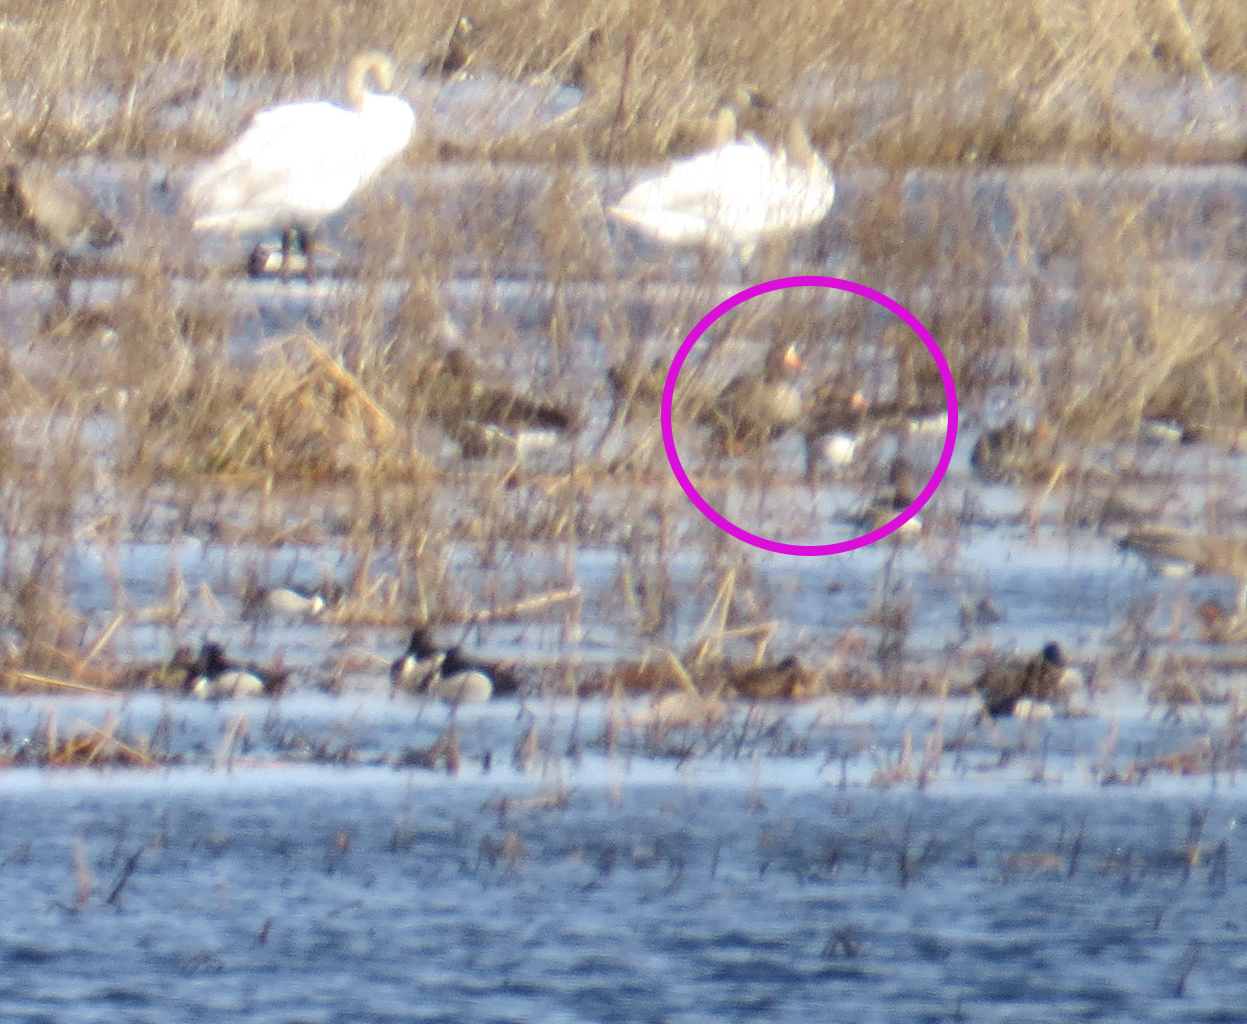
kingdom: Animalia
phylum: Chordata
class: Aves
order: Anseriformes
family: Anatidae
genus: Anser
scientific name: Anser albifrons
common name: Greater white-fronted goose
